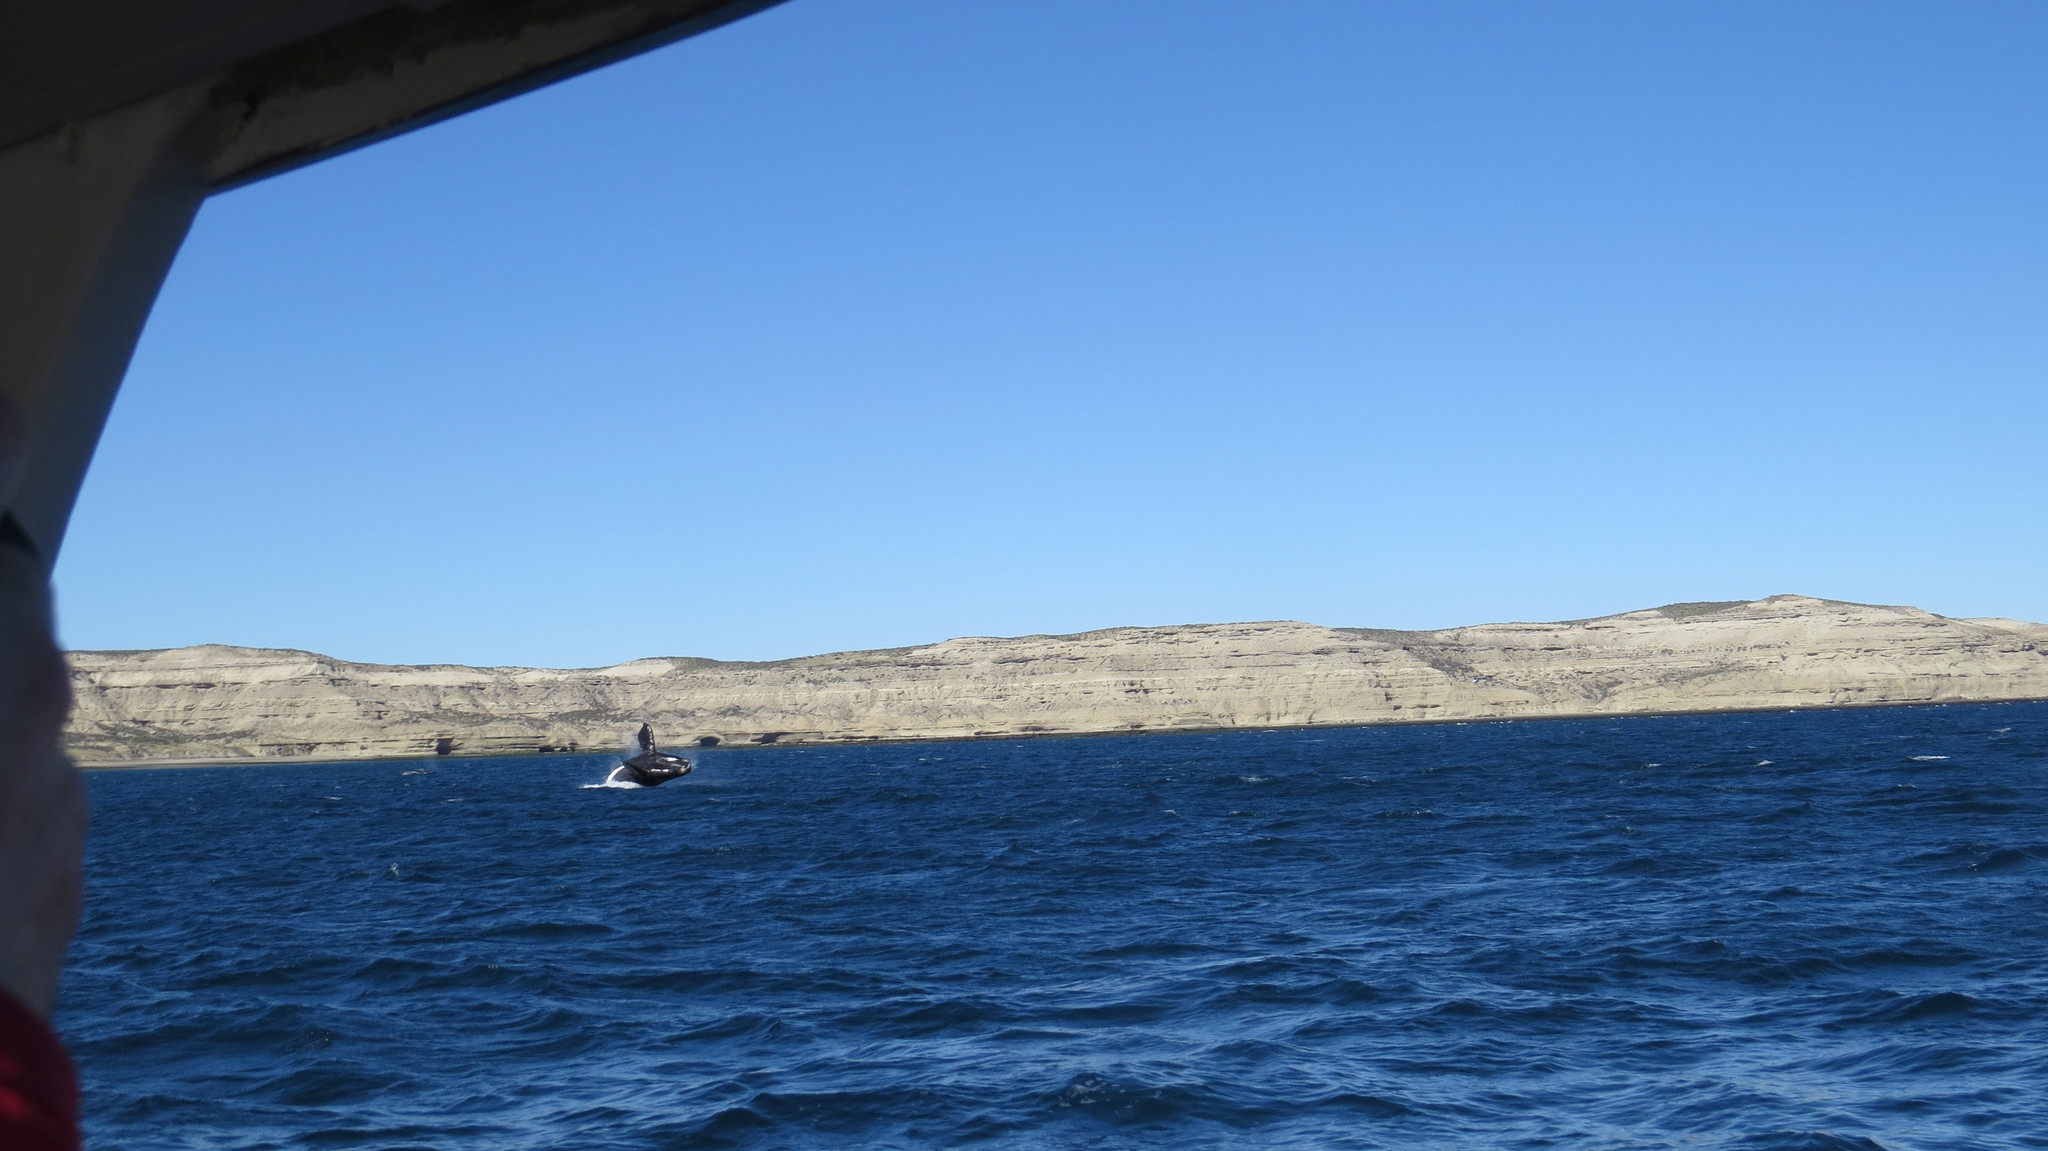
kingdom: Animalia
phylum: Chordata
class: Mammalia
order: Cetacea
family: Balaenidae
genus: Eubalaena
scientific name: Eubalaena australis
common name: Southern right whale
